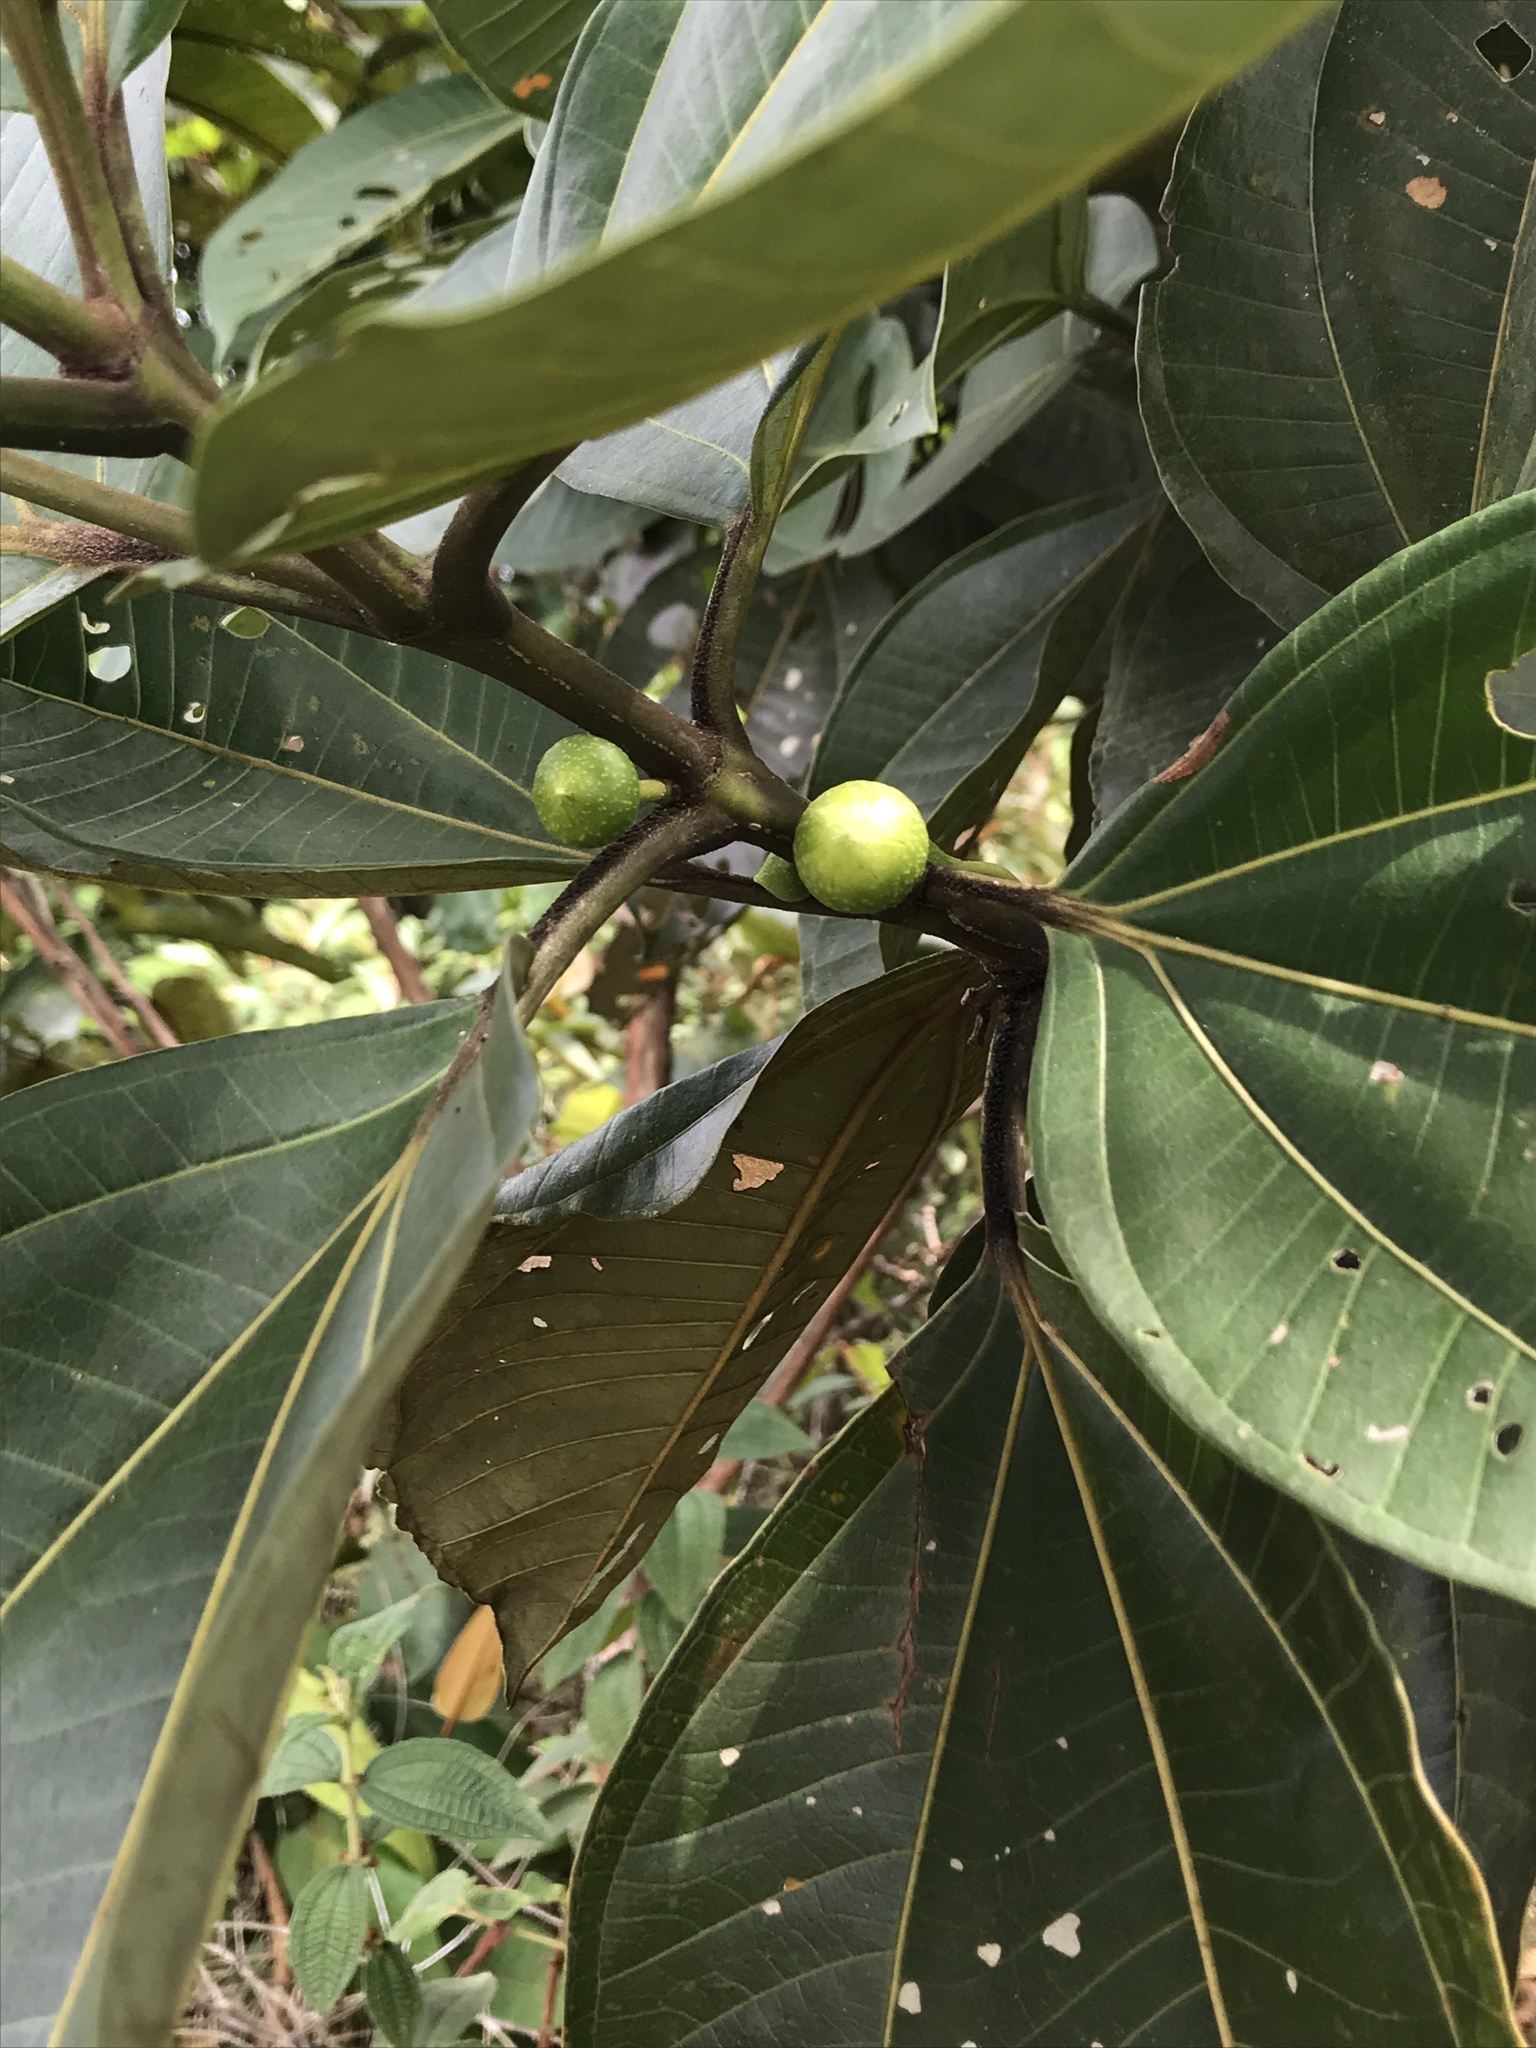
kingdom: Plantae
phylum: Tracheophyta
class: Magnoliopsida
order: Myrtales
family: Melastomataceae
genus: Bellucia
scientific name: Bellucia grossularioides
